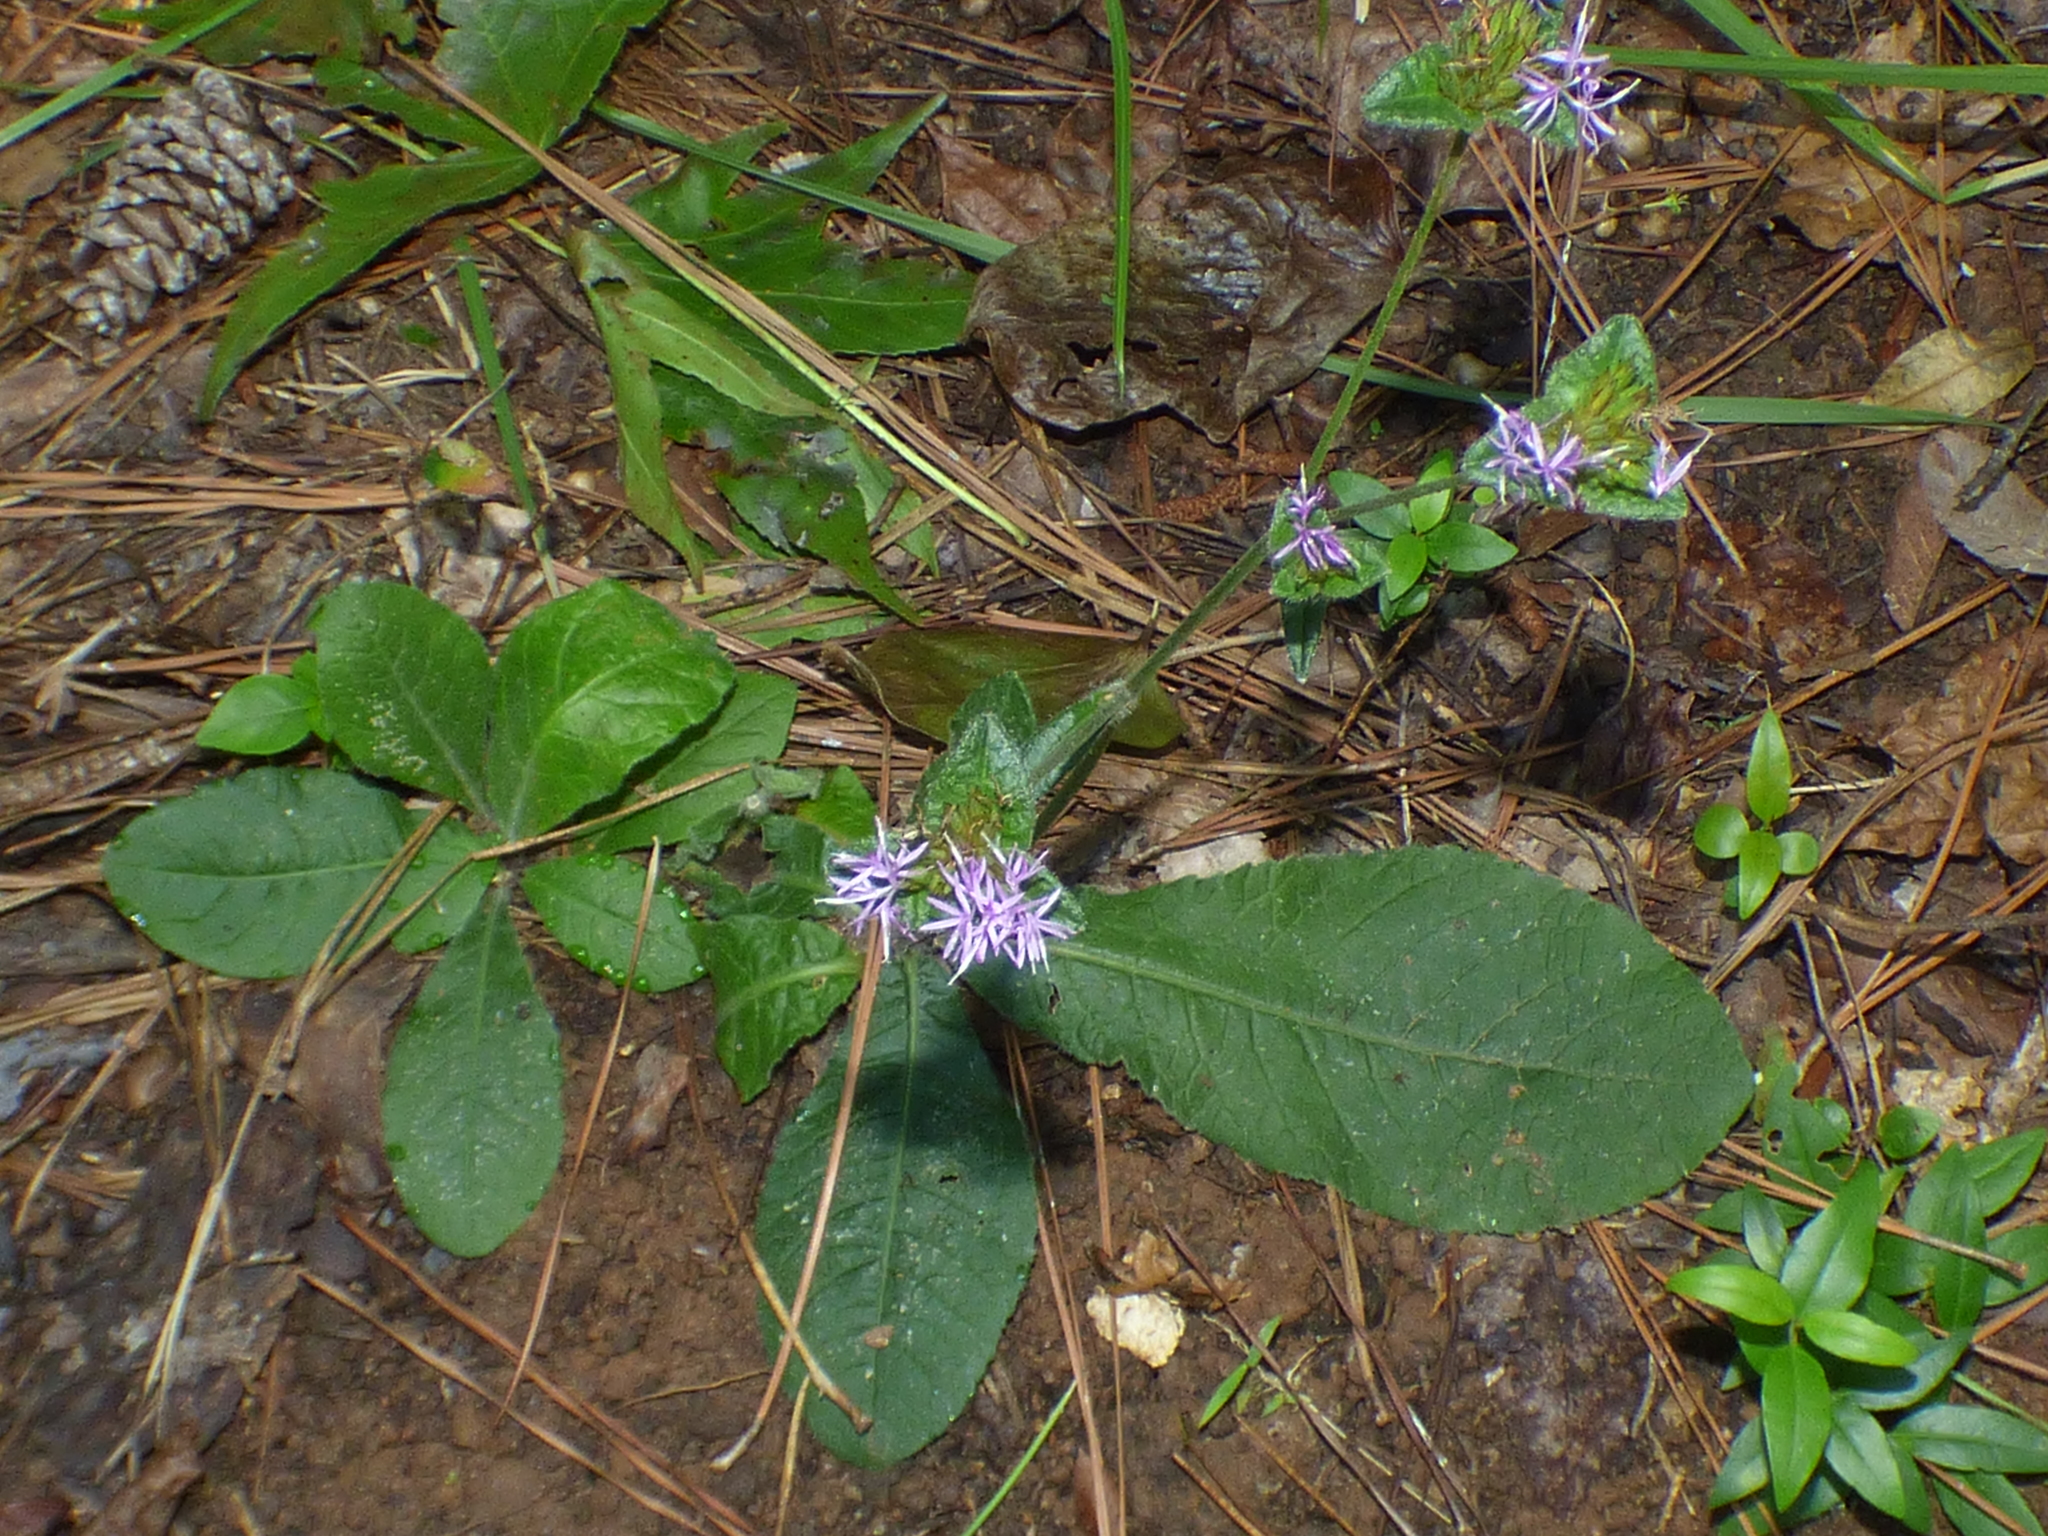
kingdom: Plantae
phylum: Tracheophyta
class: Magnoliopsida
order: Asterales
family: Asteraceae
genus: Elephantopus
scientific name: Elephantopus tomentosus
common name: Tobacco-weed
